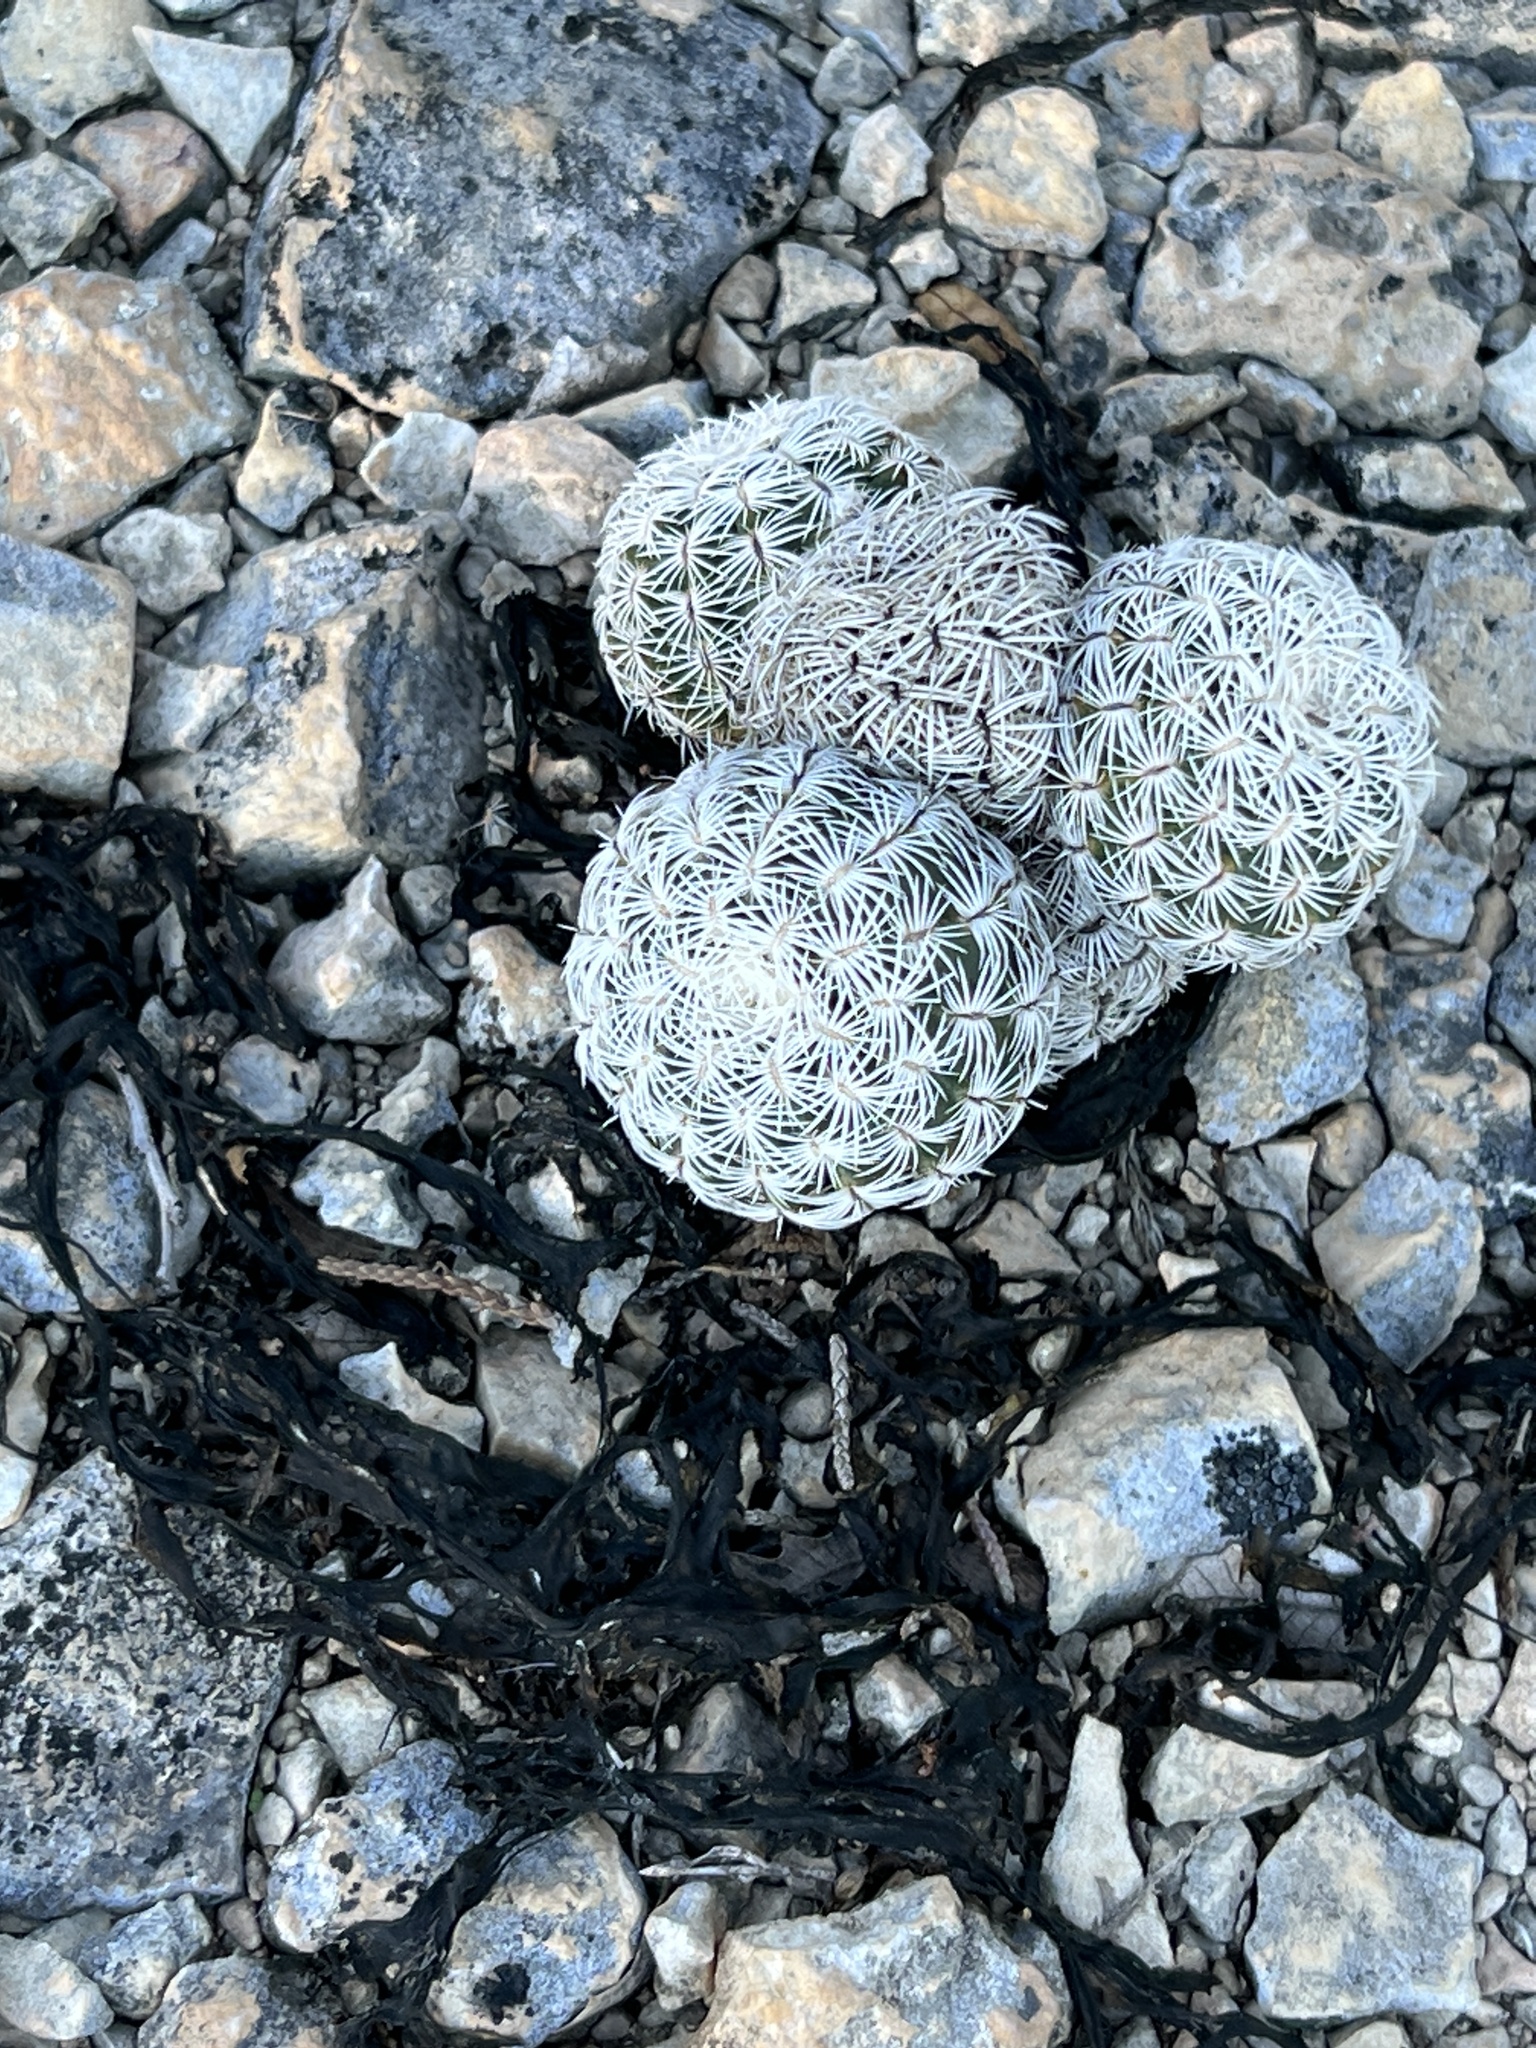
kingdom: Plantae
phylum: Tracheophyta
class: Magnoliopsida
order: Caryophyllales
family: Cactaceae
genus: Echinocereus
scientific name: Echinocereus reichenbachii
